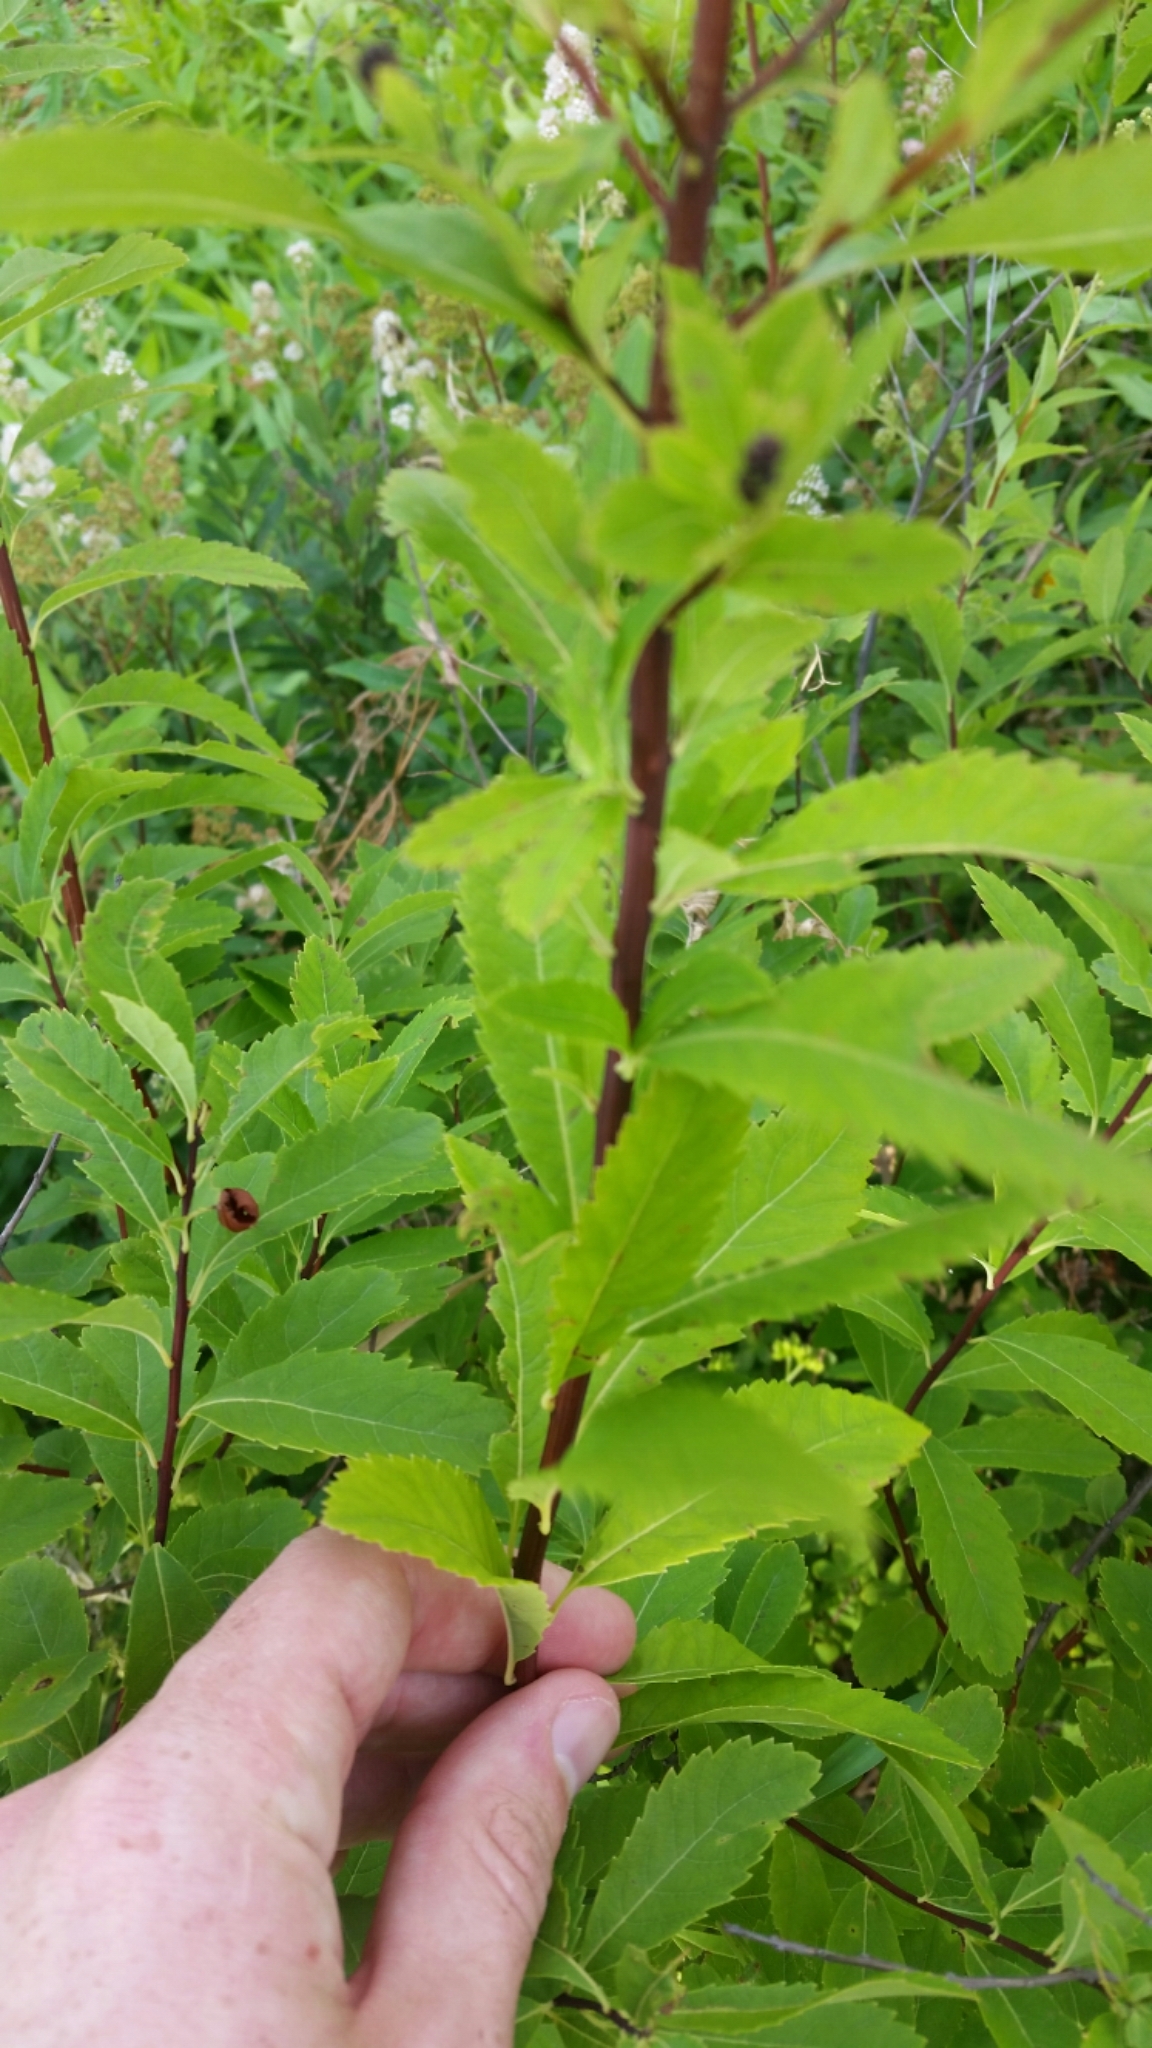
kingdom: Plantae
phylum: Tracheophyta
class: Magnoliopsida
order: Rosales
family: Rosaceae
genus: Spiraea
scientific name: Spiraea alba
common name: Pale bridewort
